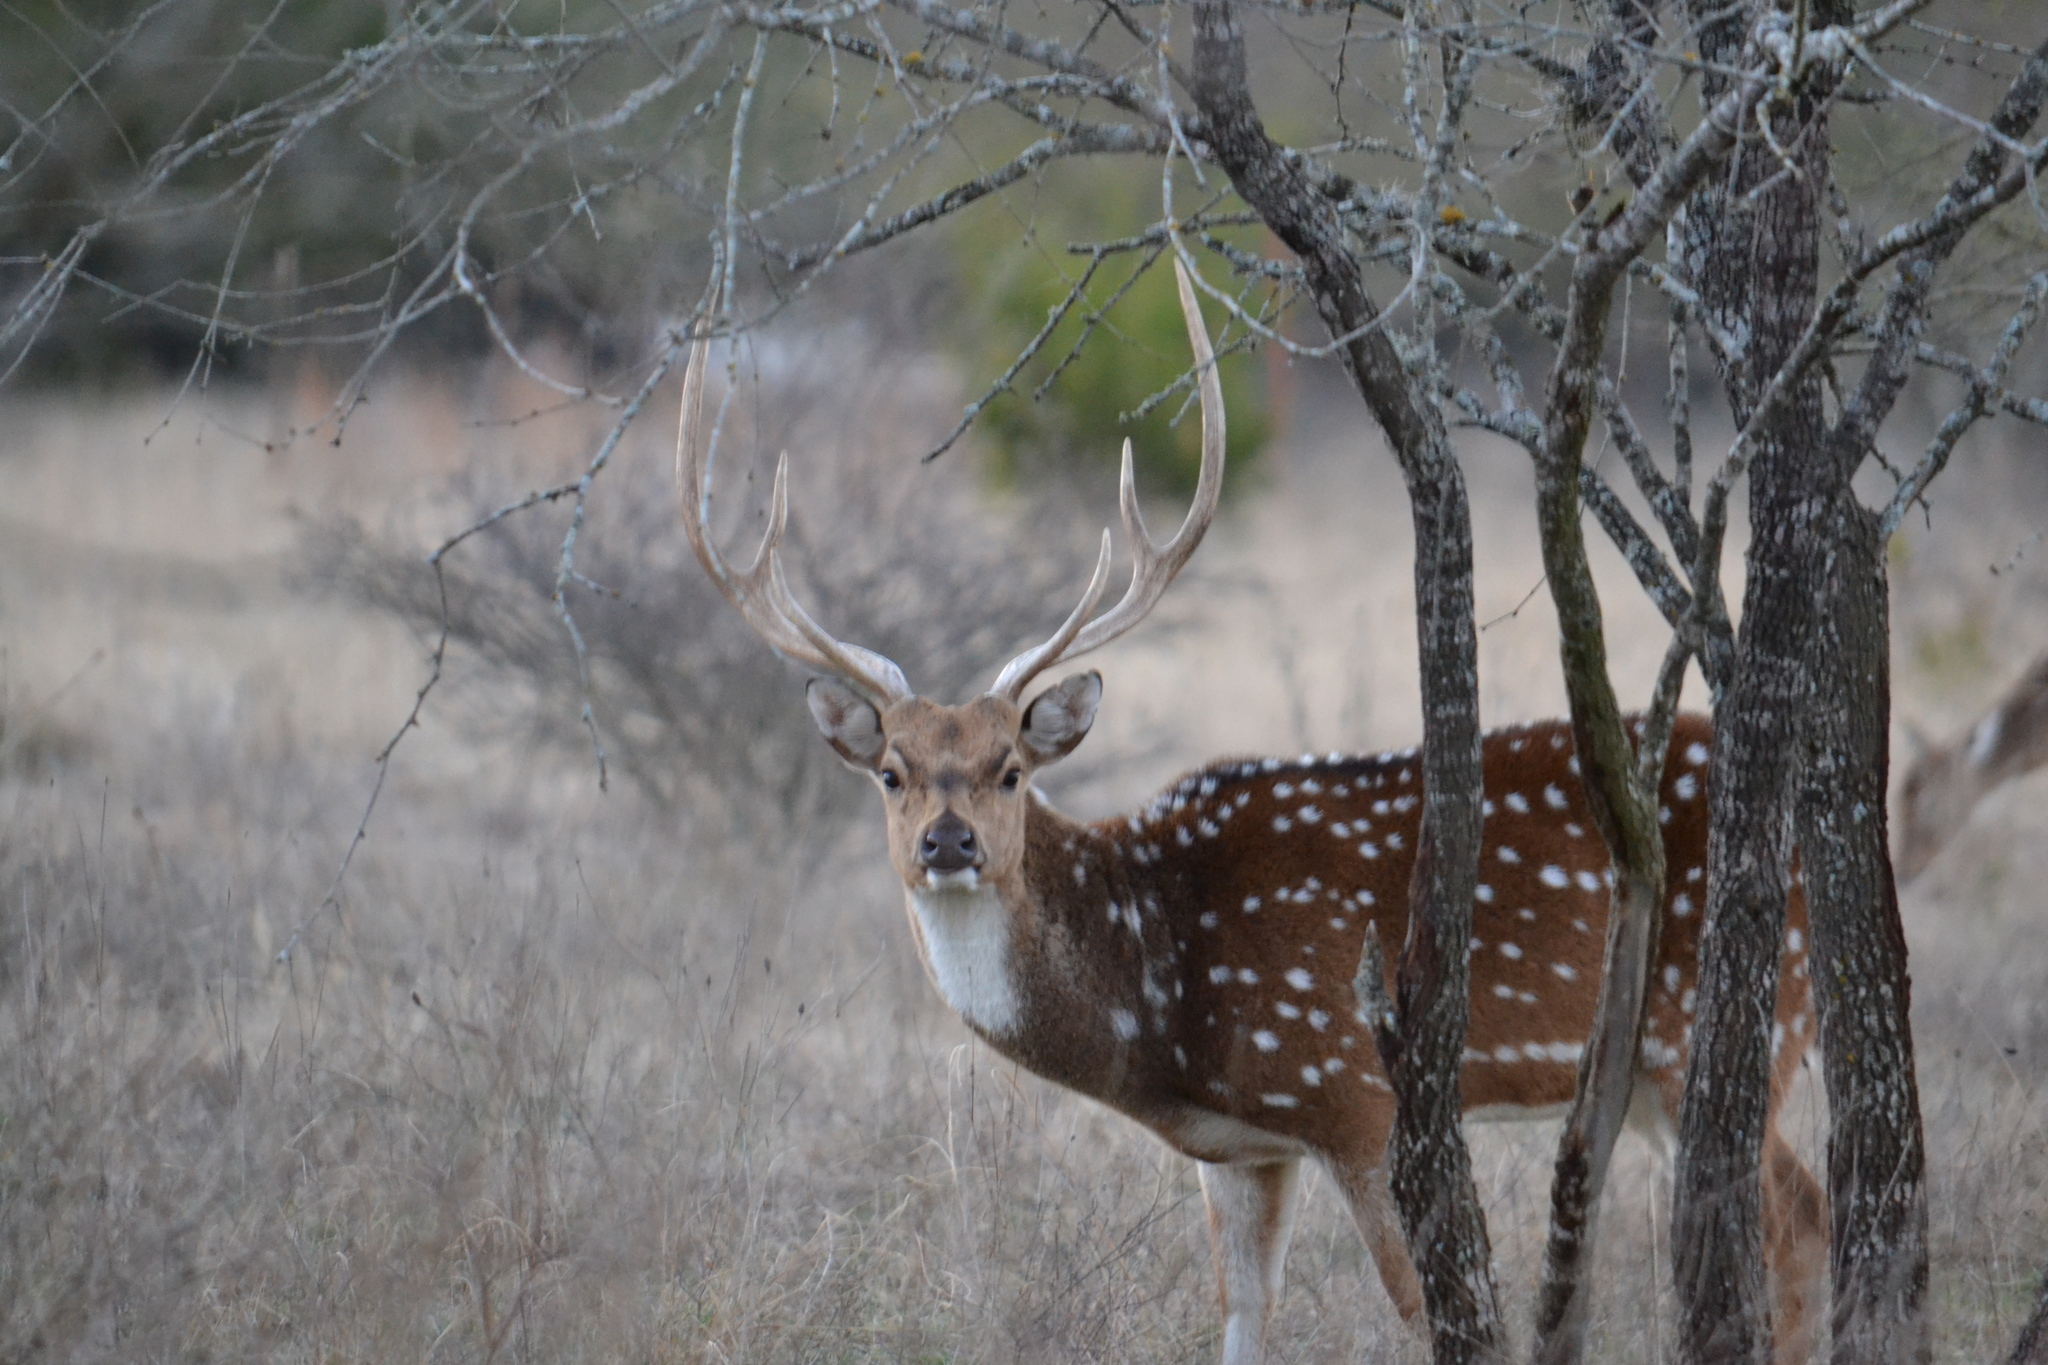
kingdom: Animalia
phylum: Chordata
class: Mammalia
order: Artiodactyla
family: Cervidae
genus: Axis
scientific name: Axis axis
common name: Chital
